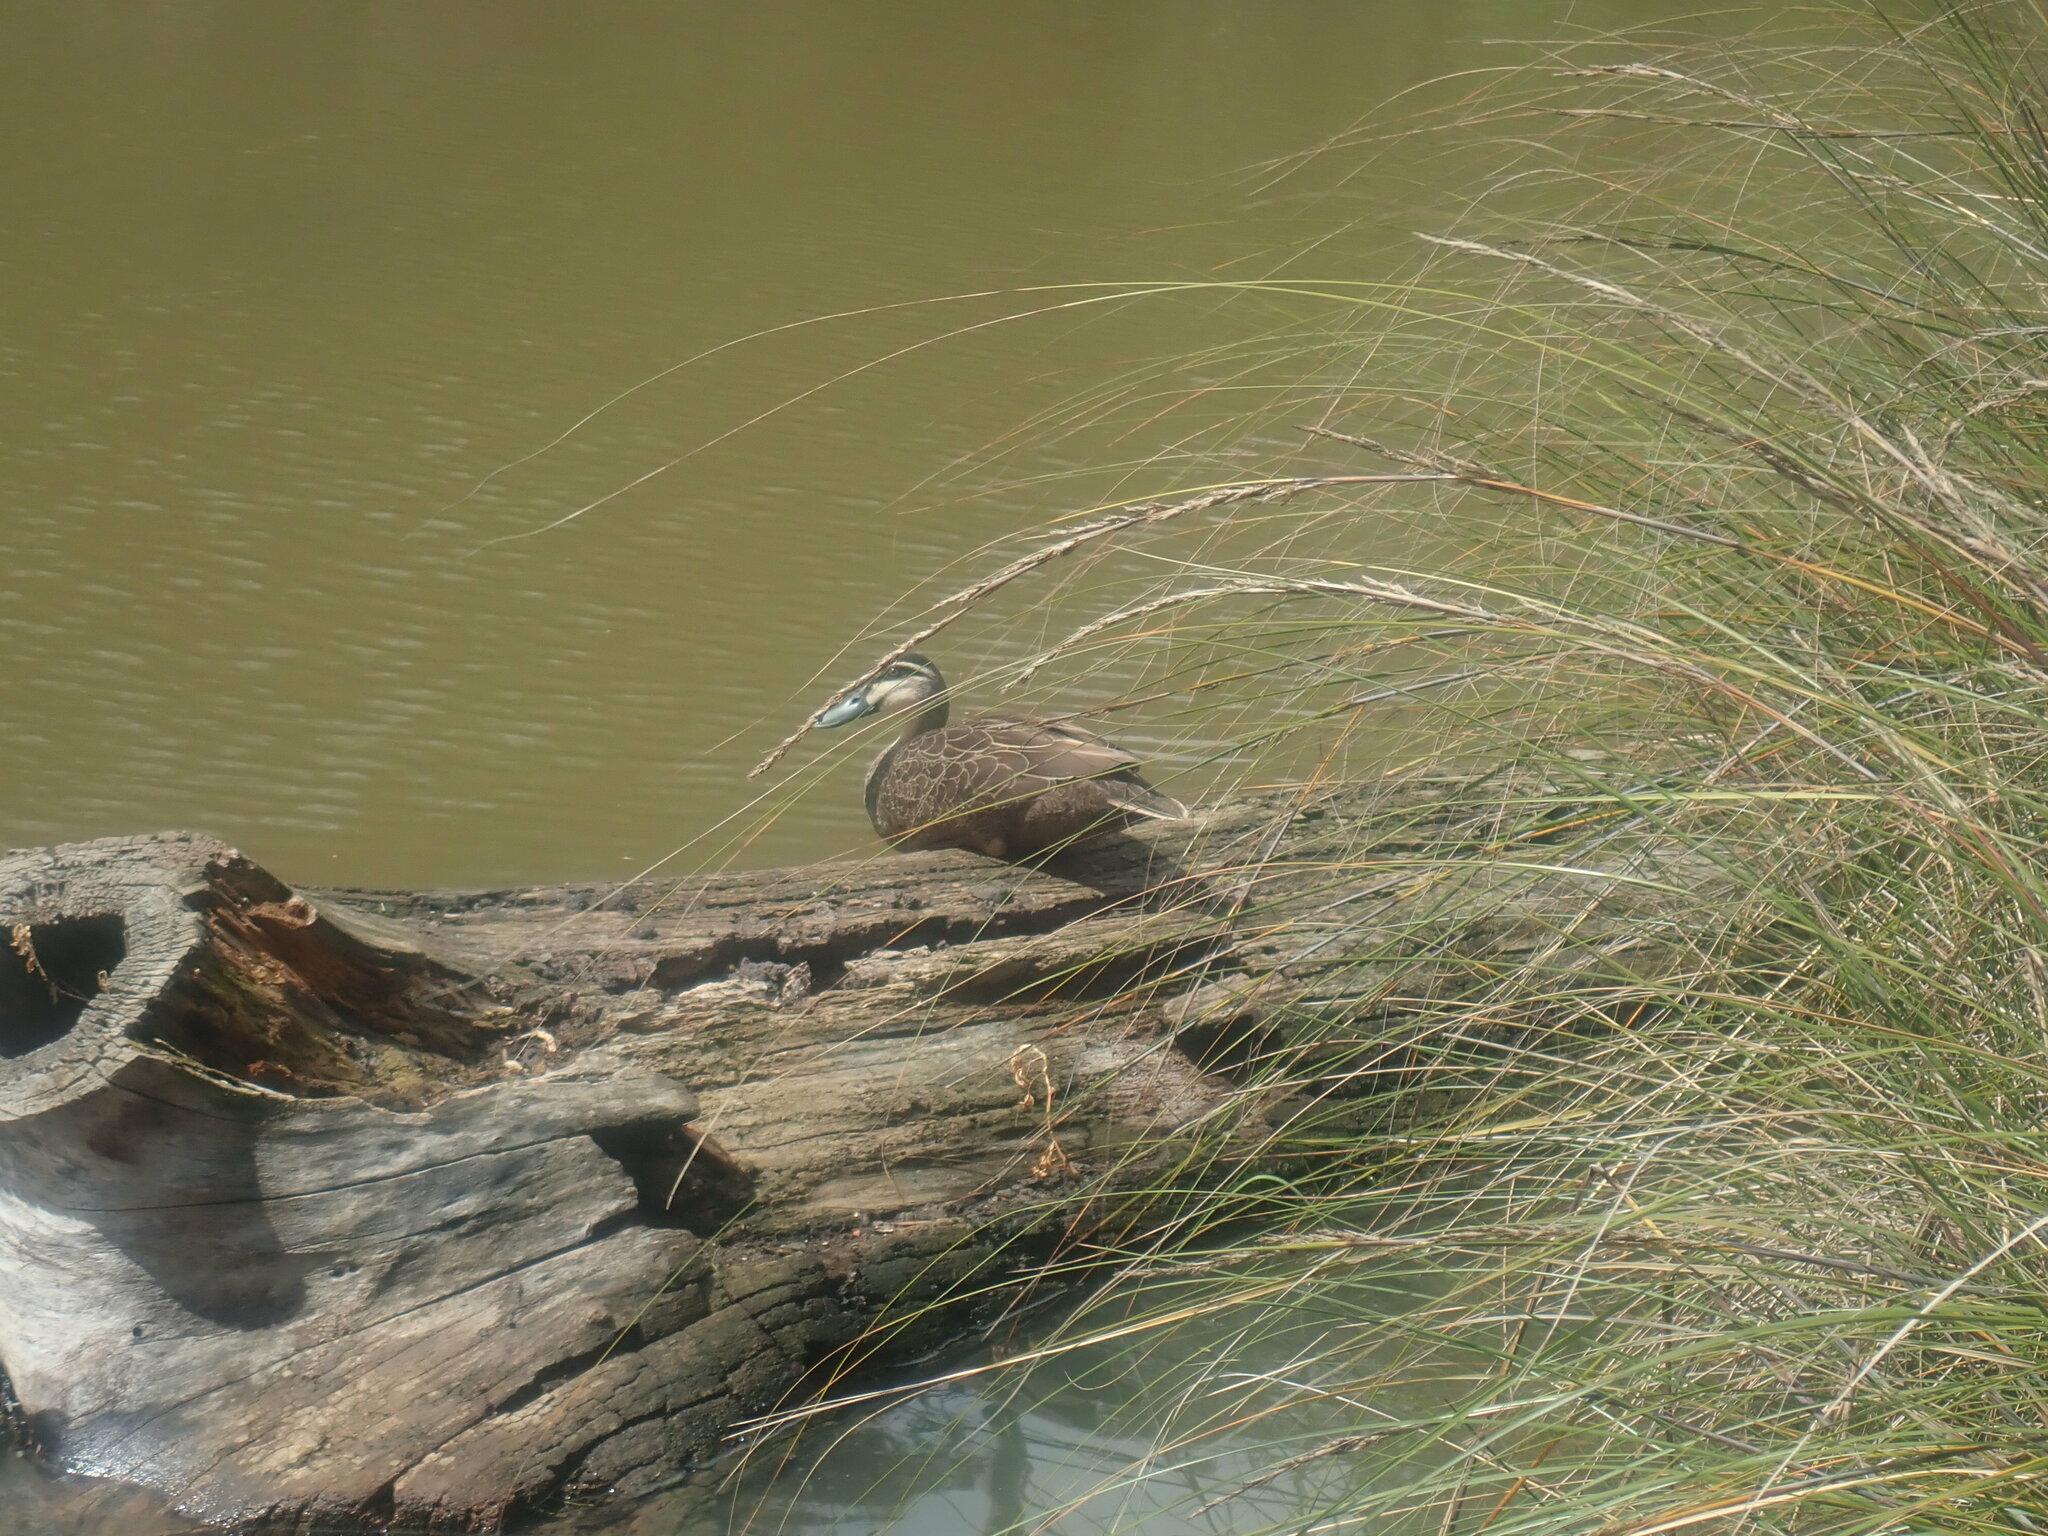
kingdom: Animalia
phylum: Chordata
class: Aves
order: Anseriformes
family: Anatidae
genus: Anas
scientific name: Anas superciliosa
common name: Pacific black duck
